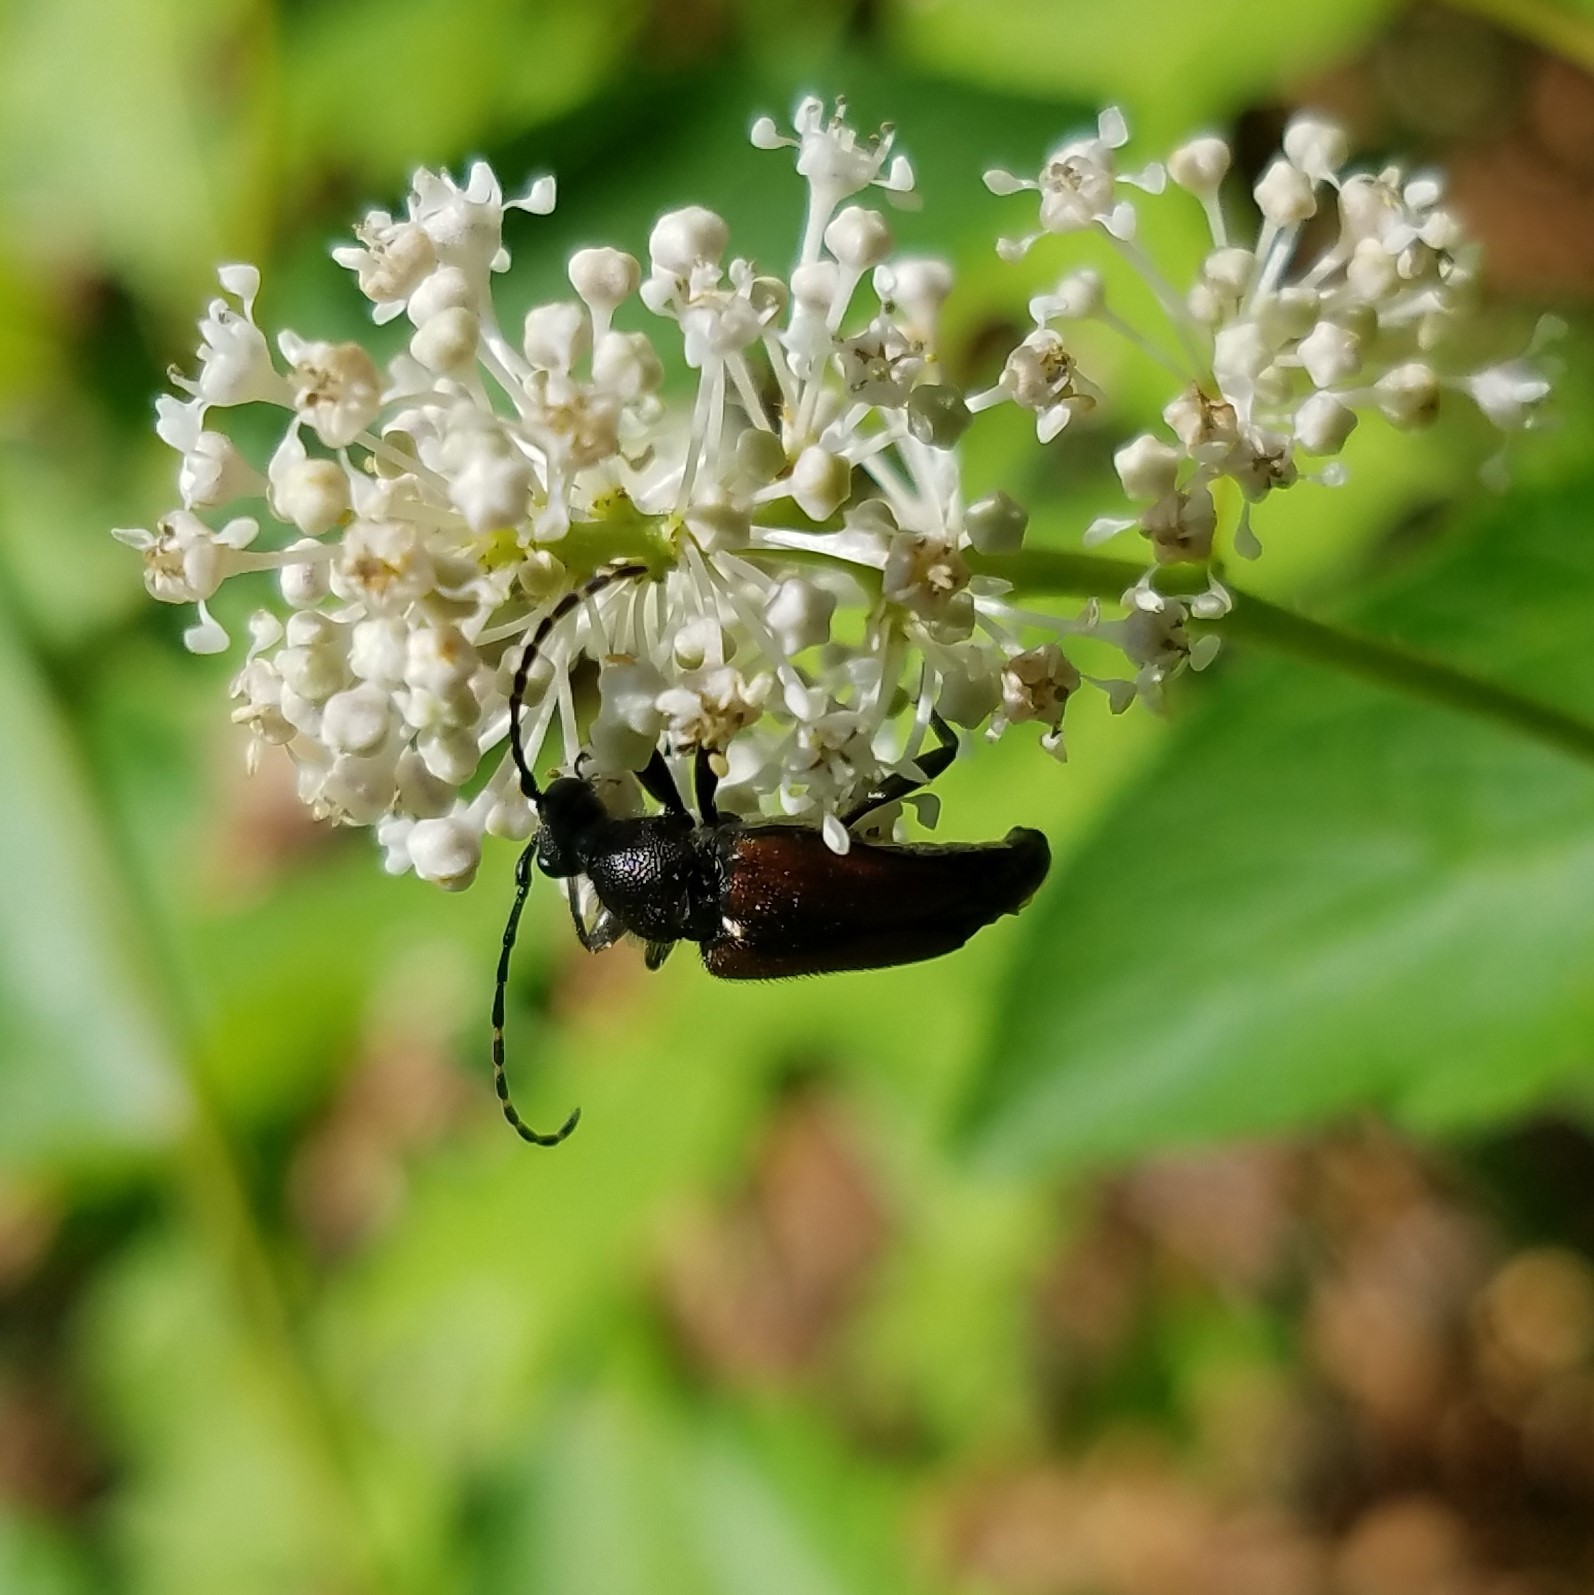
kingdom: Animalia
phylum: Arthropoda
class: Insecta
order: Coleoptera
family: Cerambycidae
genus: Brachyleptura
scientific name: Brachyleptura rubrica
